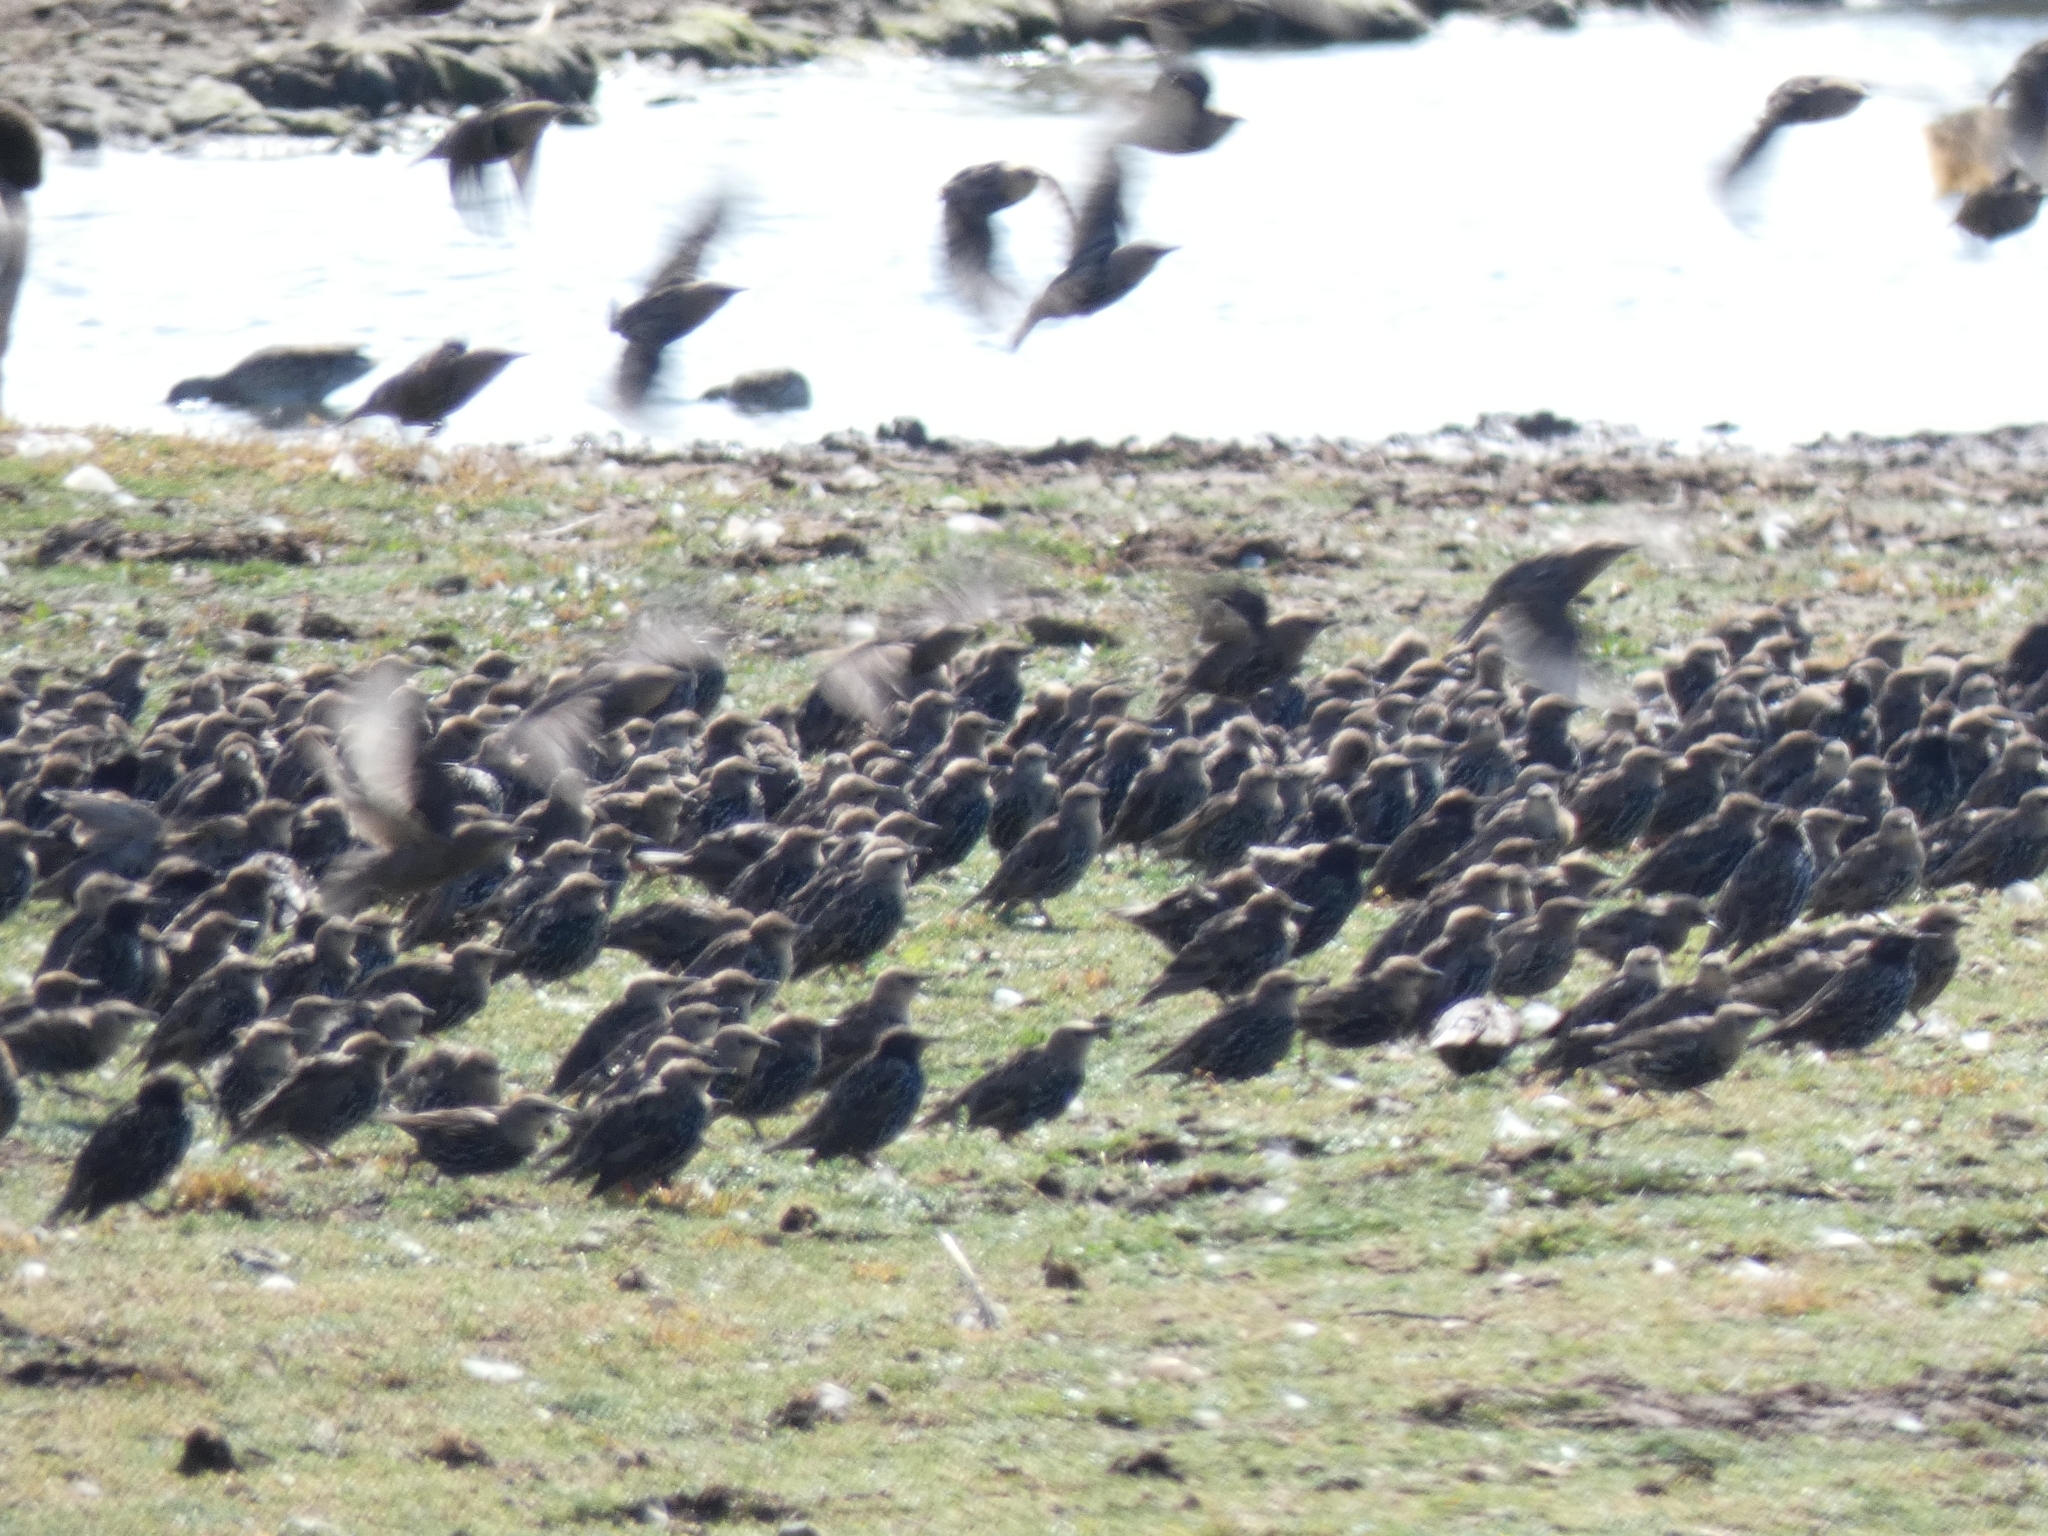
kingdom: Animalia
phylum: Chordata
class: Aves
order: Passeriformes
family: Sturnidae
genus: Sturnus
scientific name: Sturnus vulgaris
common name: Common starling
